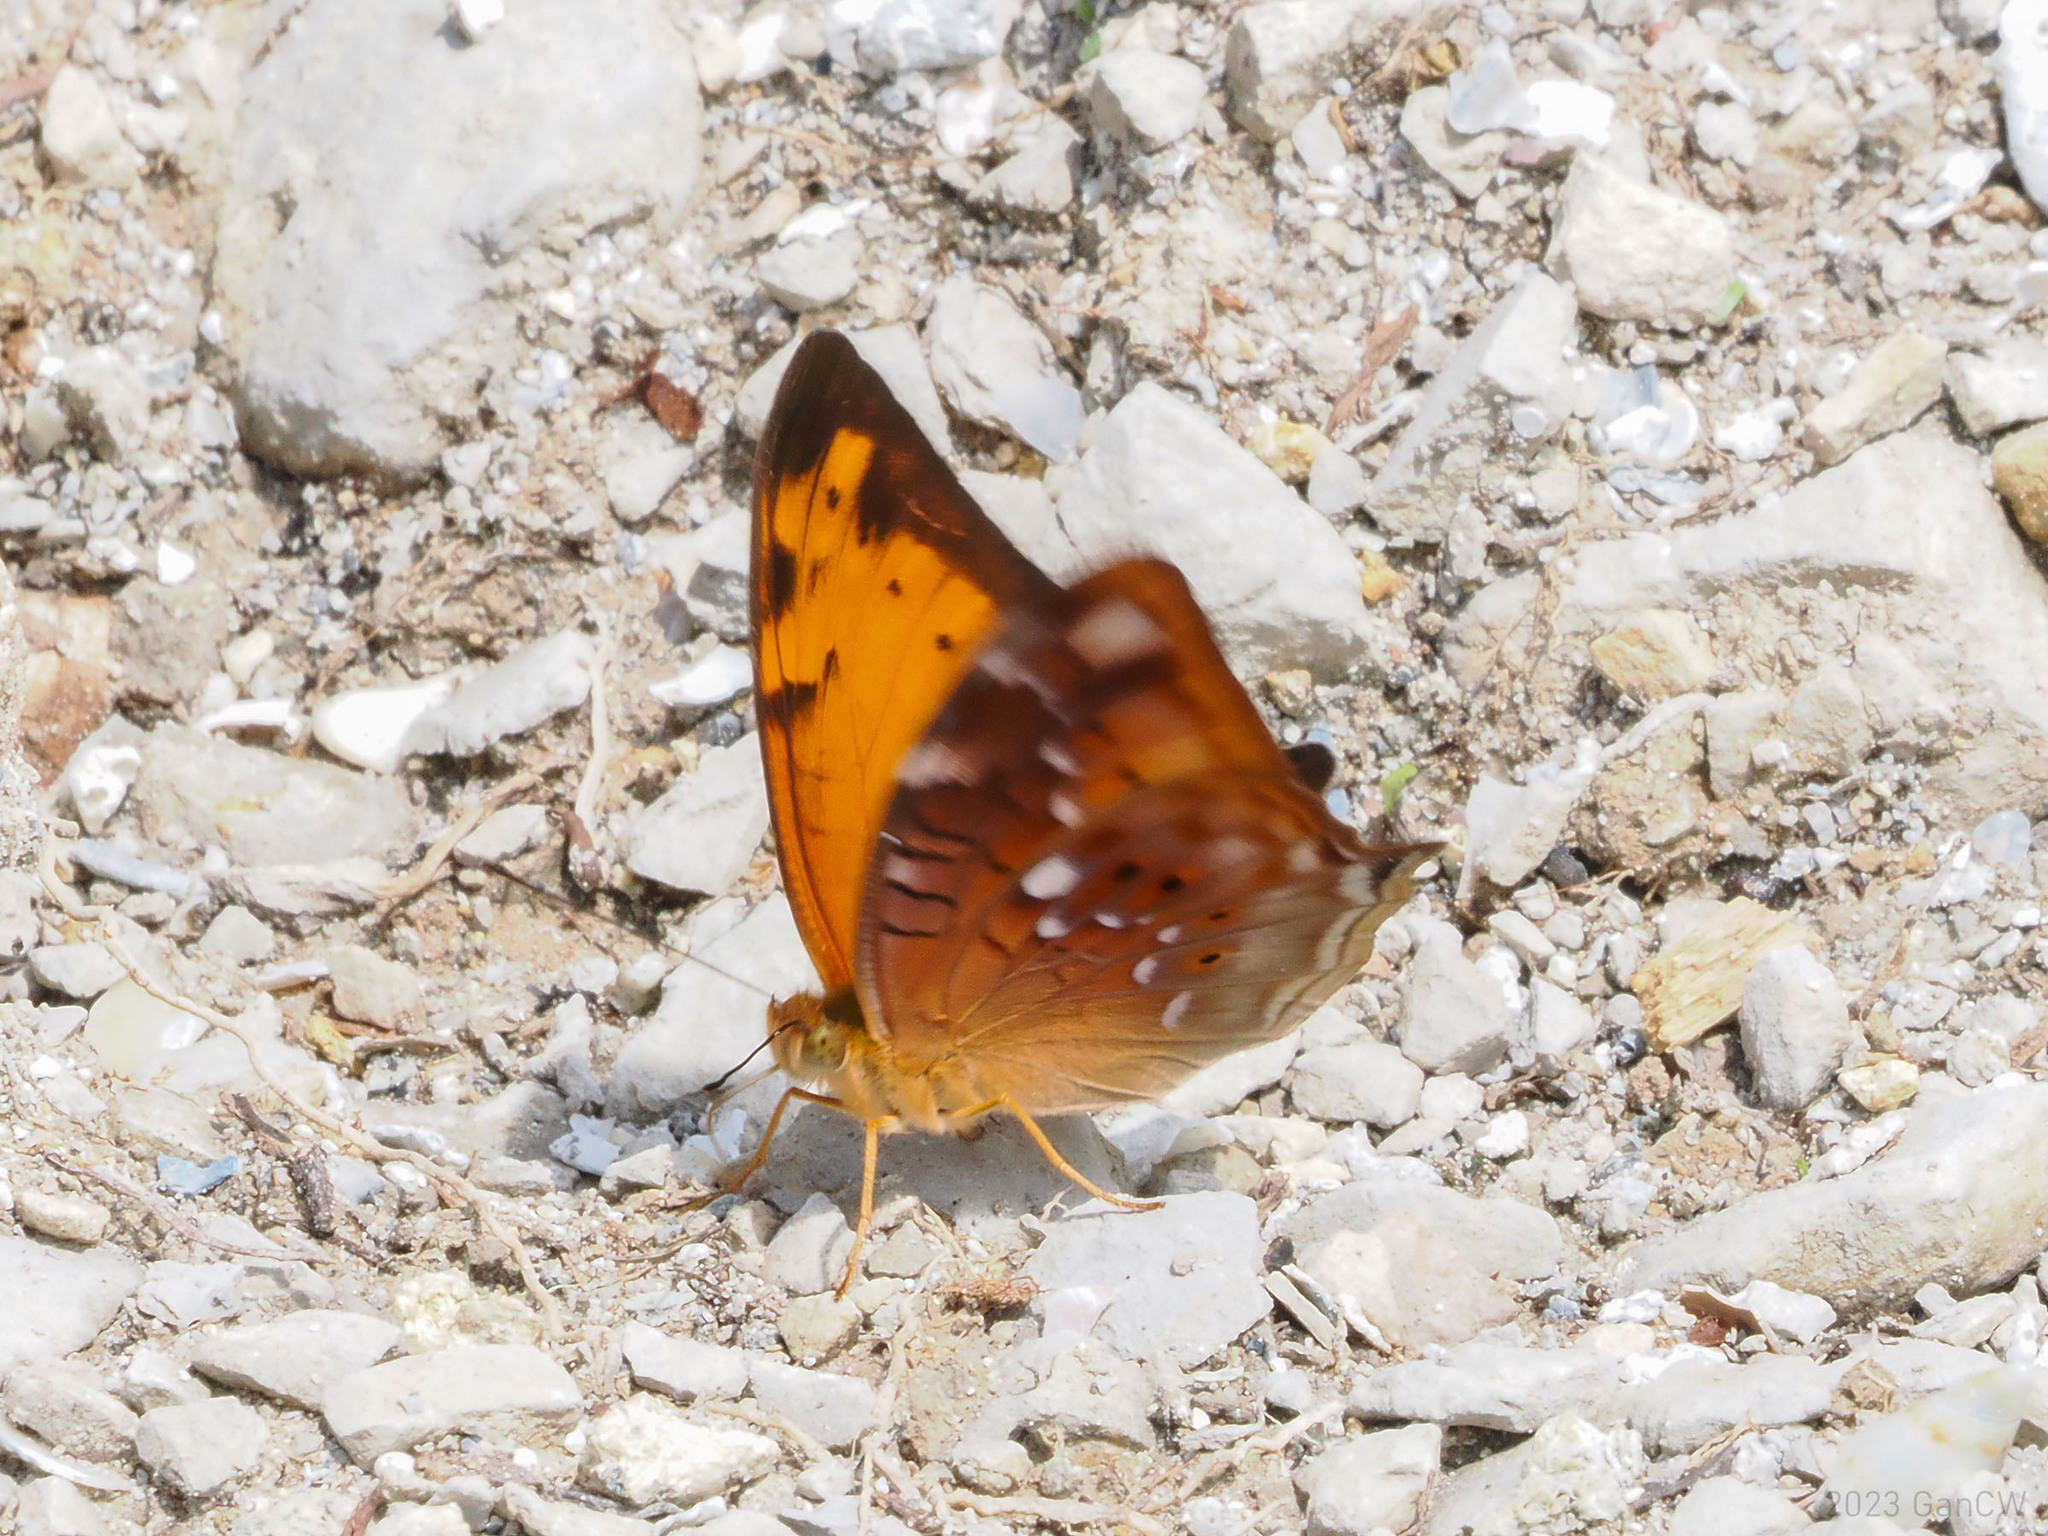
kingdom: Animalia
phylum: Arthropoda
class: Insecta
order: Lepidoptera
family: Nymphalidae
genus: Vagrans
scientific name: Vagrans egista
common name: Tailed rustic
